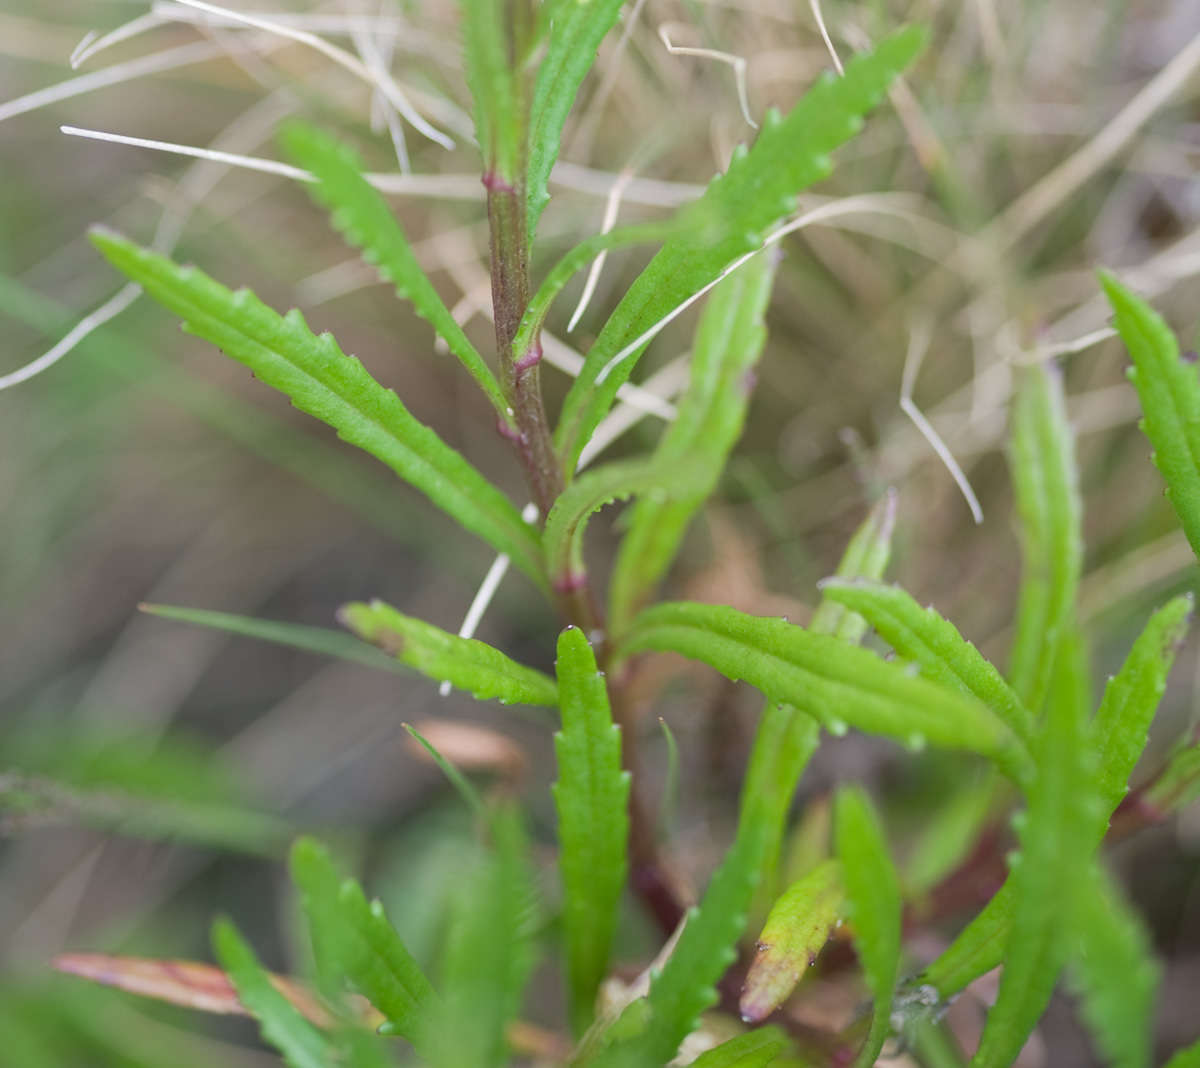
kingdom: Plantae
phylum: Tracheophyta
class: Magnoliopsida
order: Asterales
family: Asteraceae
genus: Senecio
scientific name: Senecio pinnatifolius
